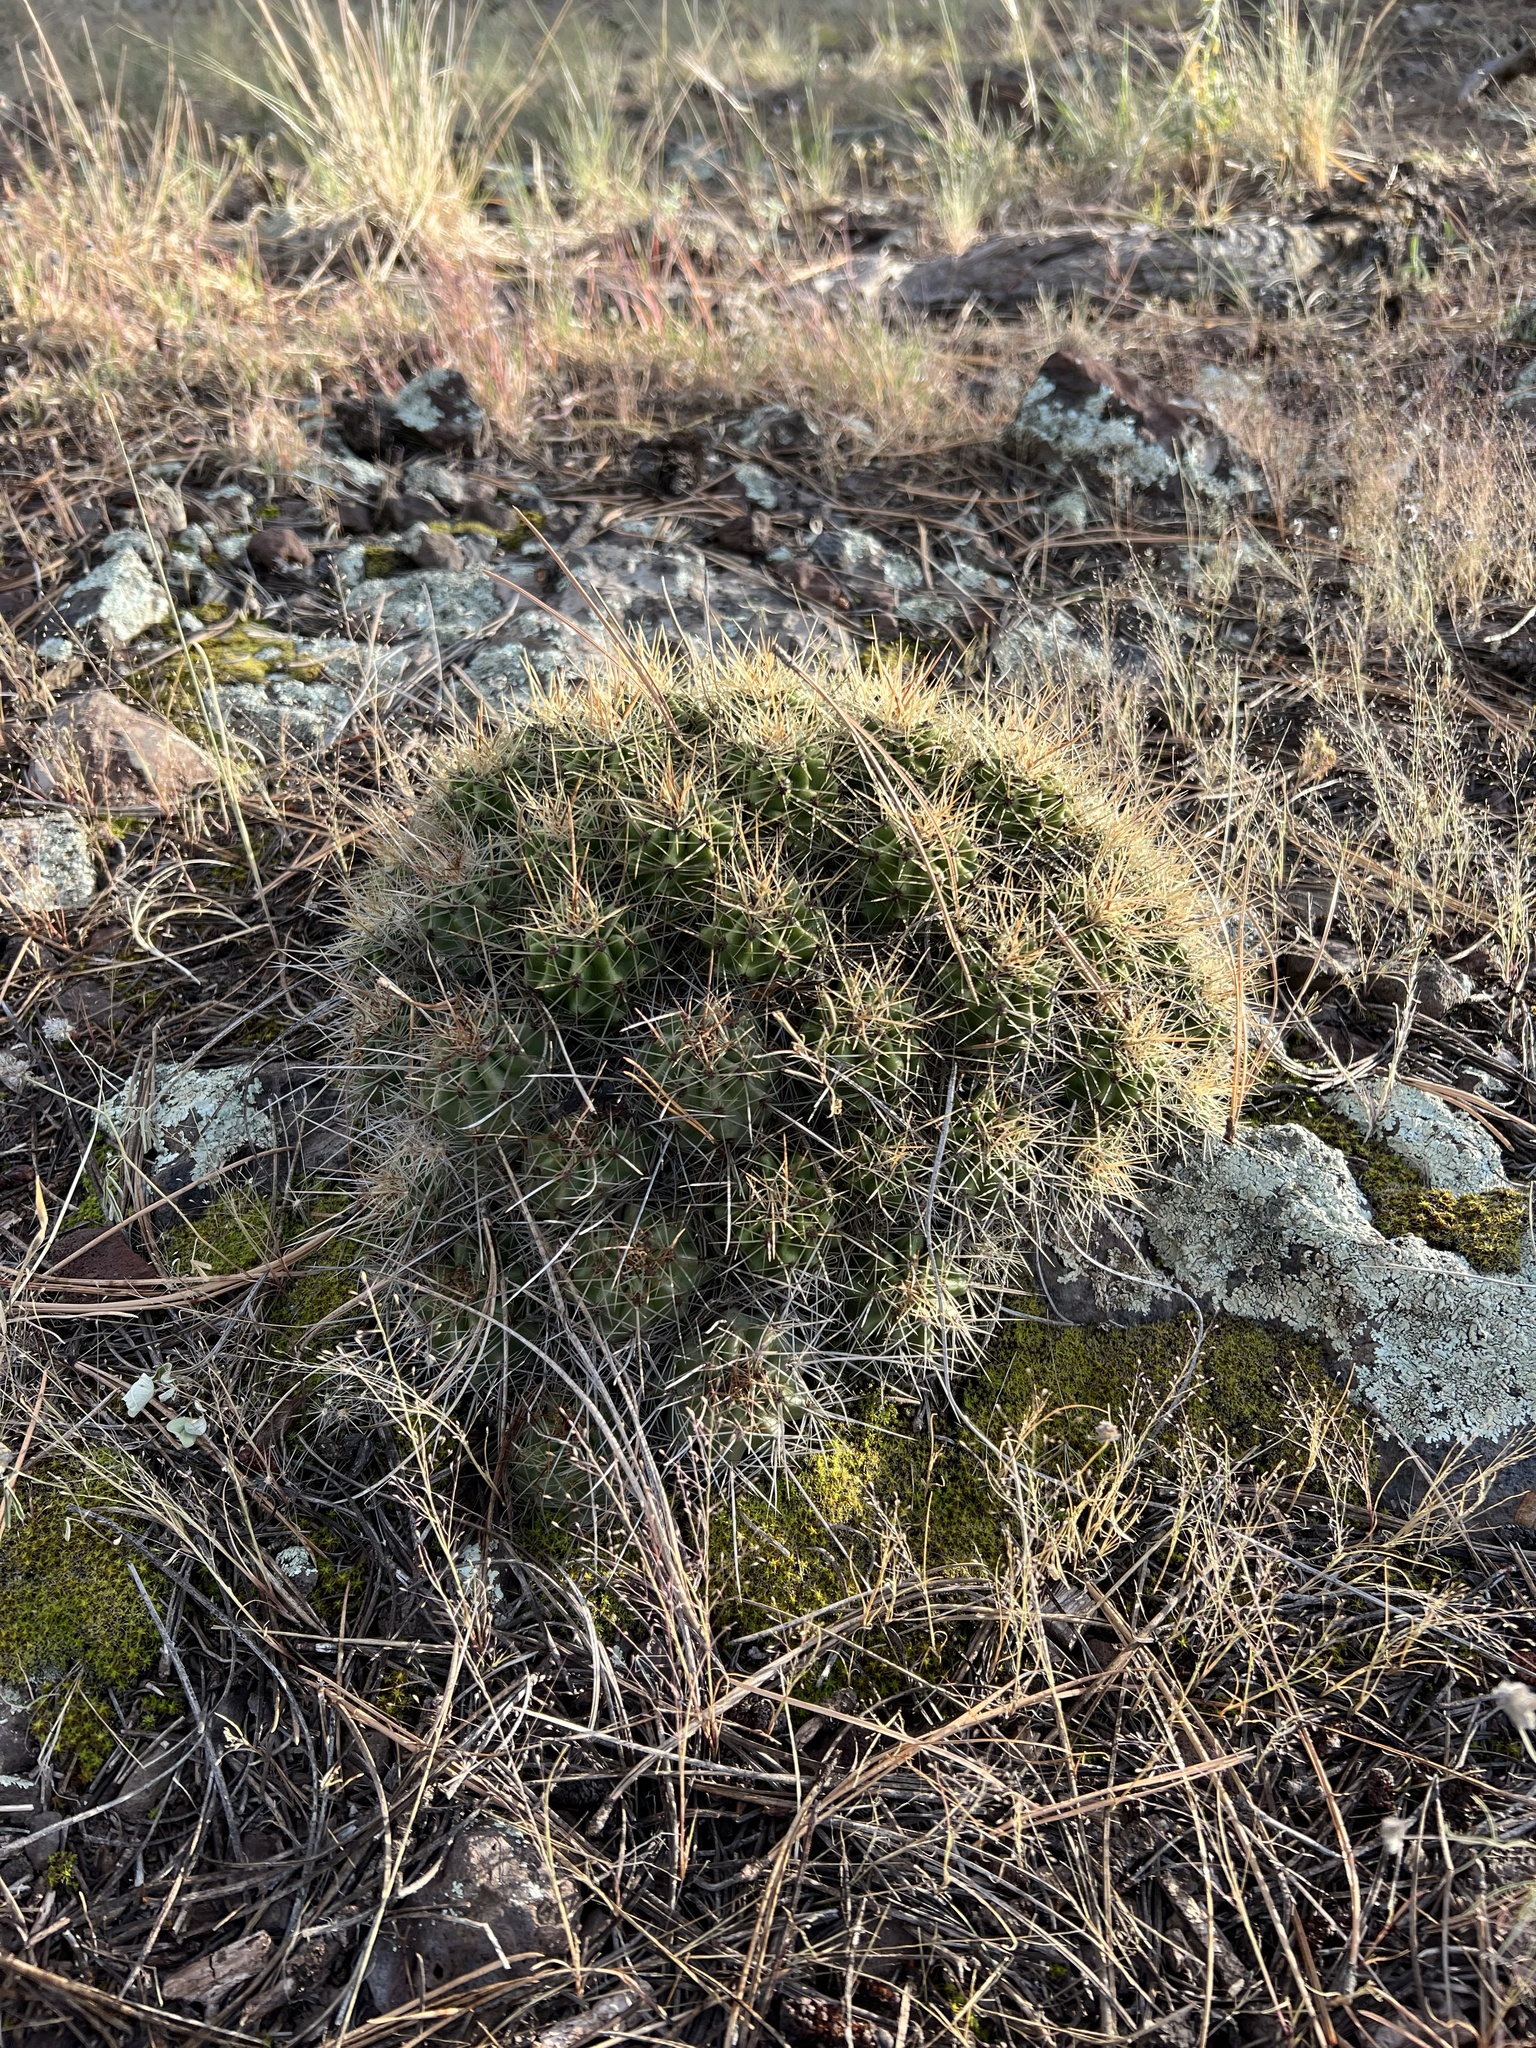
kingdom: Plantae
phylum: Tracheophyta
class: Magnoliopsida
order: Caryophyllales
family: Cactaceae
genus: Echinocereus
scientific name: Echinocereus bakeri
